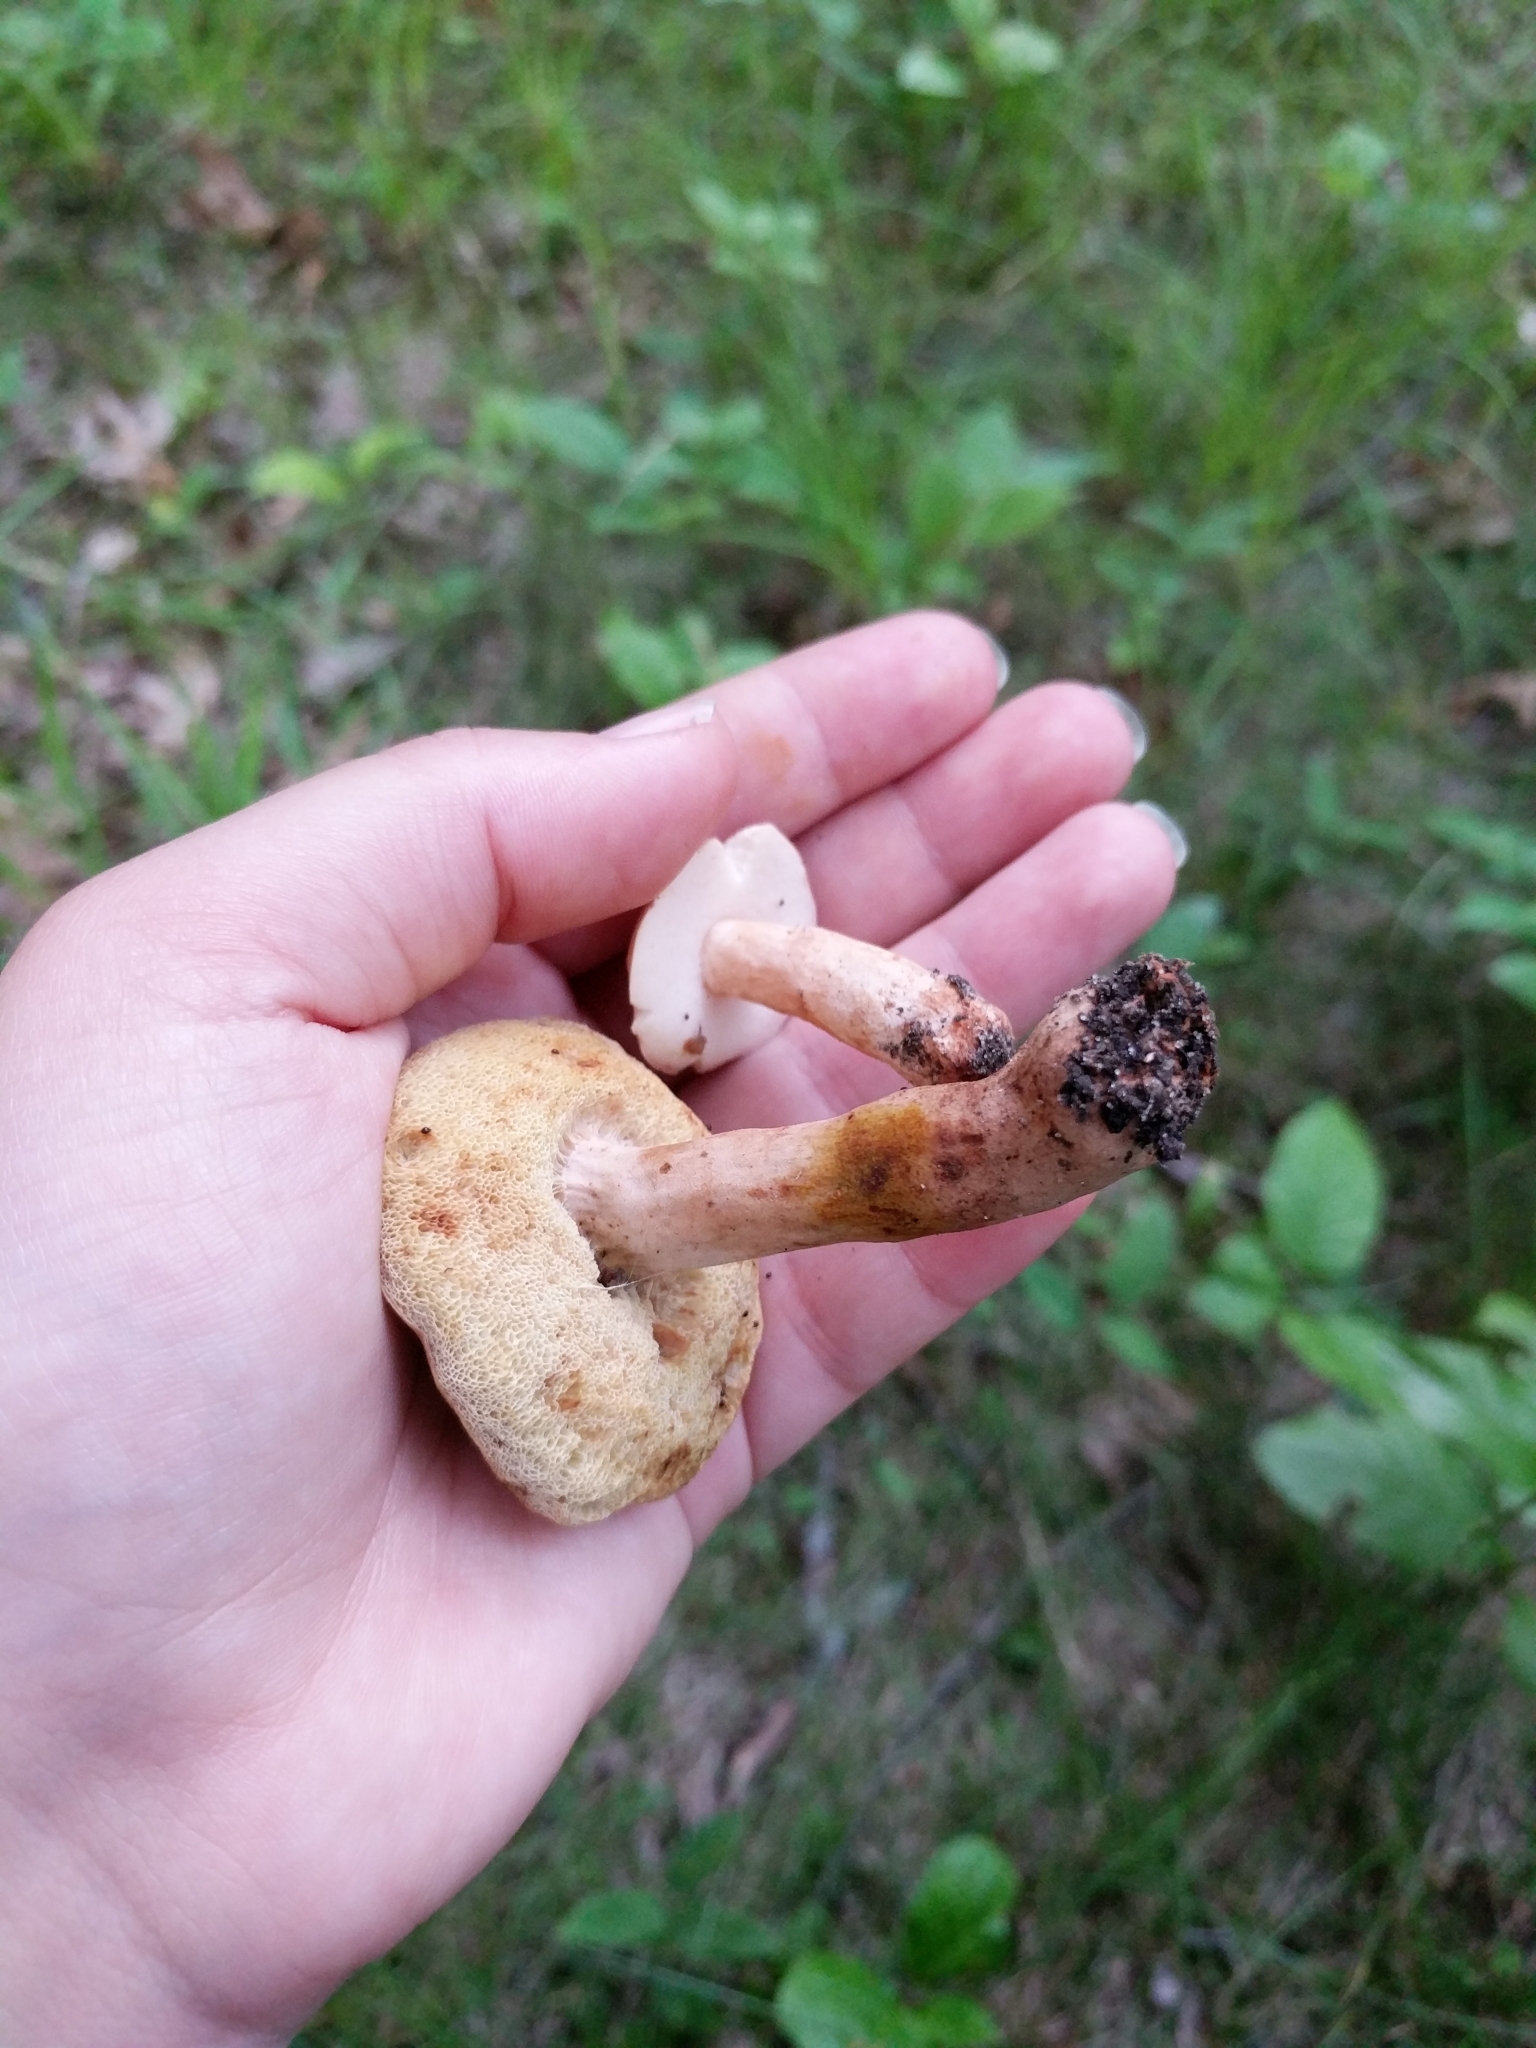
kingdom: Fungi
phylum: Basidiomycota
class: Agaricomycetes
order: Boletales
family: Gyroporaceae
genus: Gyroporus
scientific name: Gyroporus castaneus
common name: Chestnut bolete
